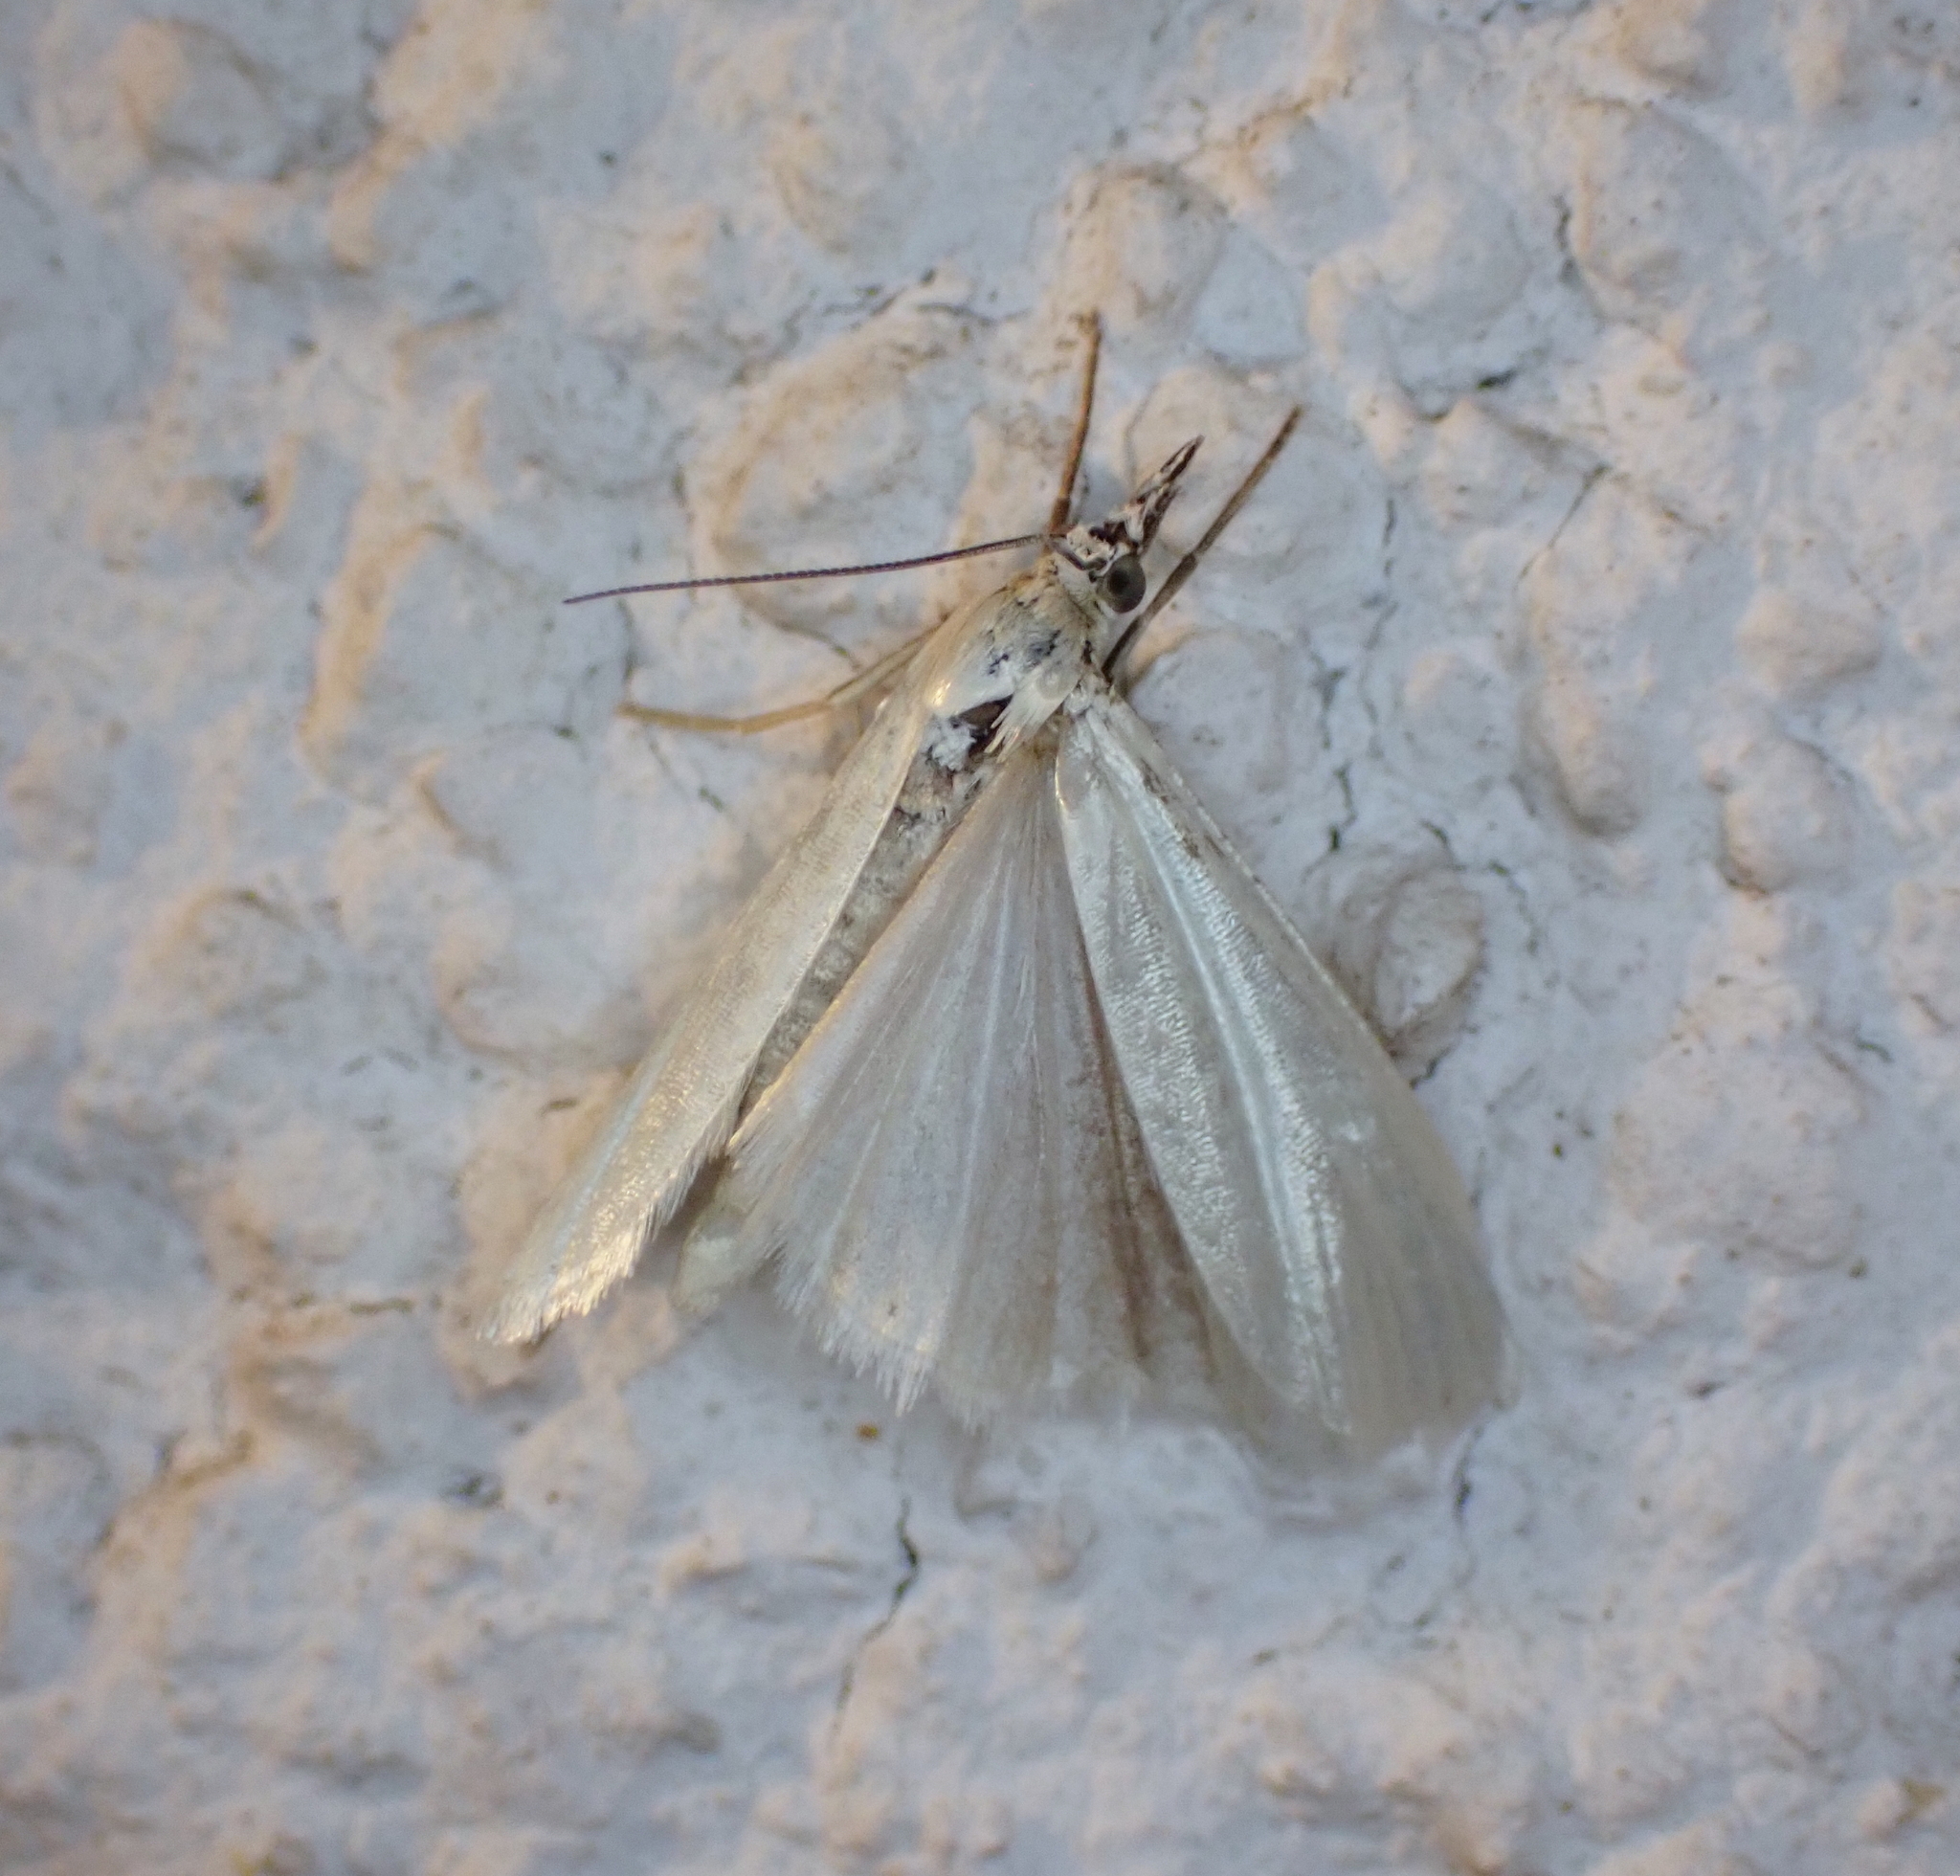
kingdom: Animalia
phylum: Arthropoda
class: Insecta
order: Lepidoptera
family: Crambidae
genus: Crambus
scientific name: Crambus perlellus
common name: Yellow satin veneer
